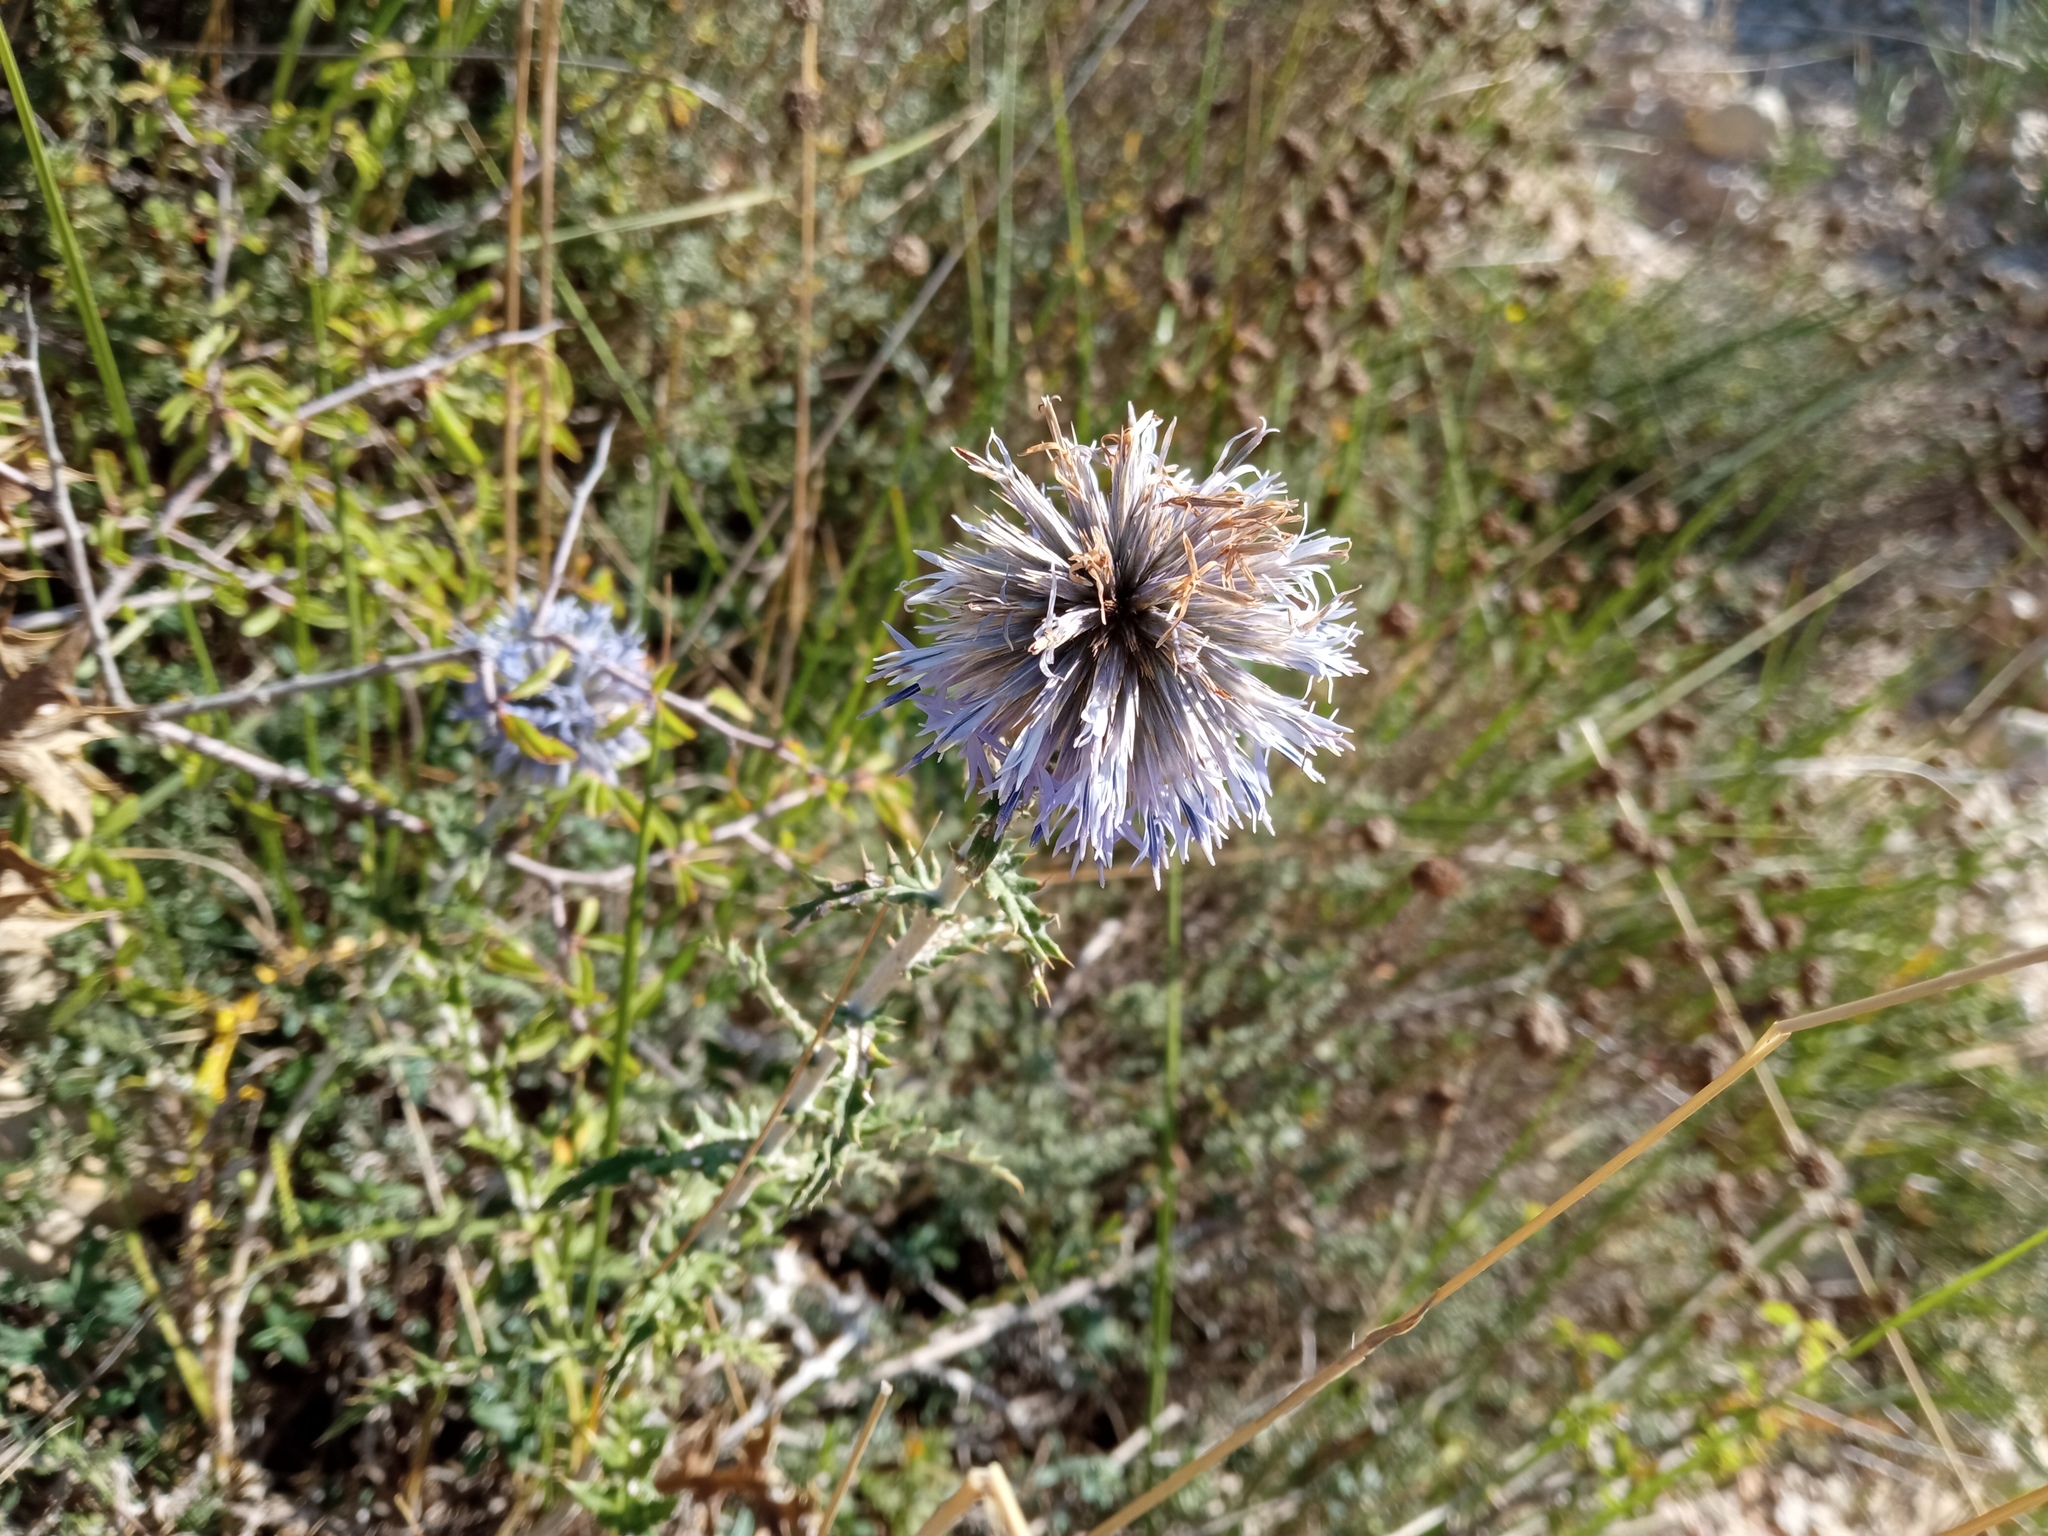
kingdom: Plantae
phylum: Tracheophyta
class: Magnoliopsida
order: Asterales
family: Asteraceae
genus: Echinops
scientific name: Echinops ritro
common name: Globe thistle
